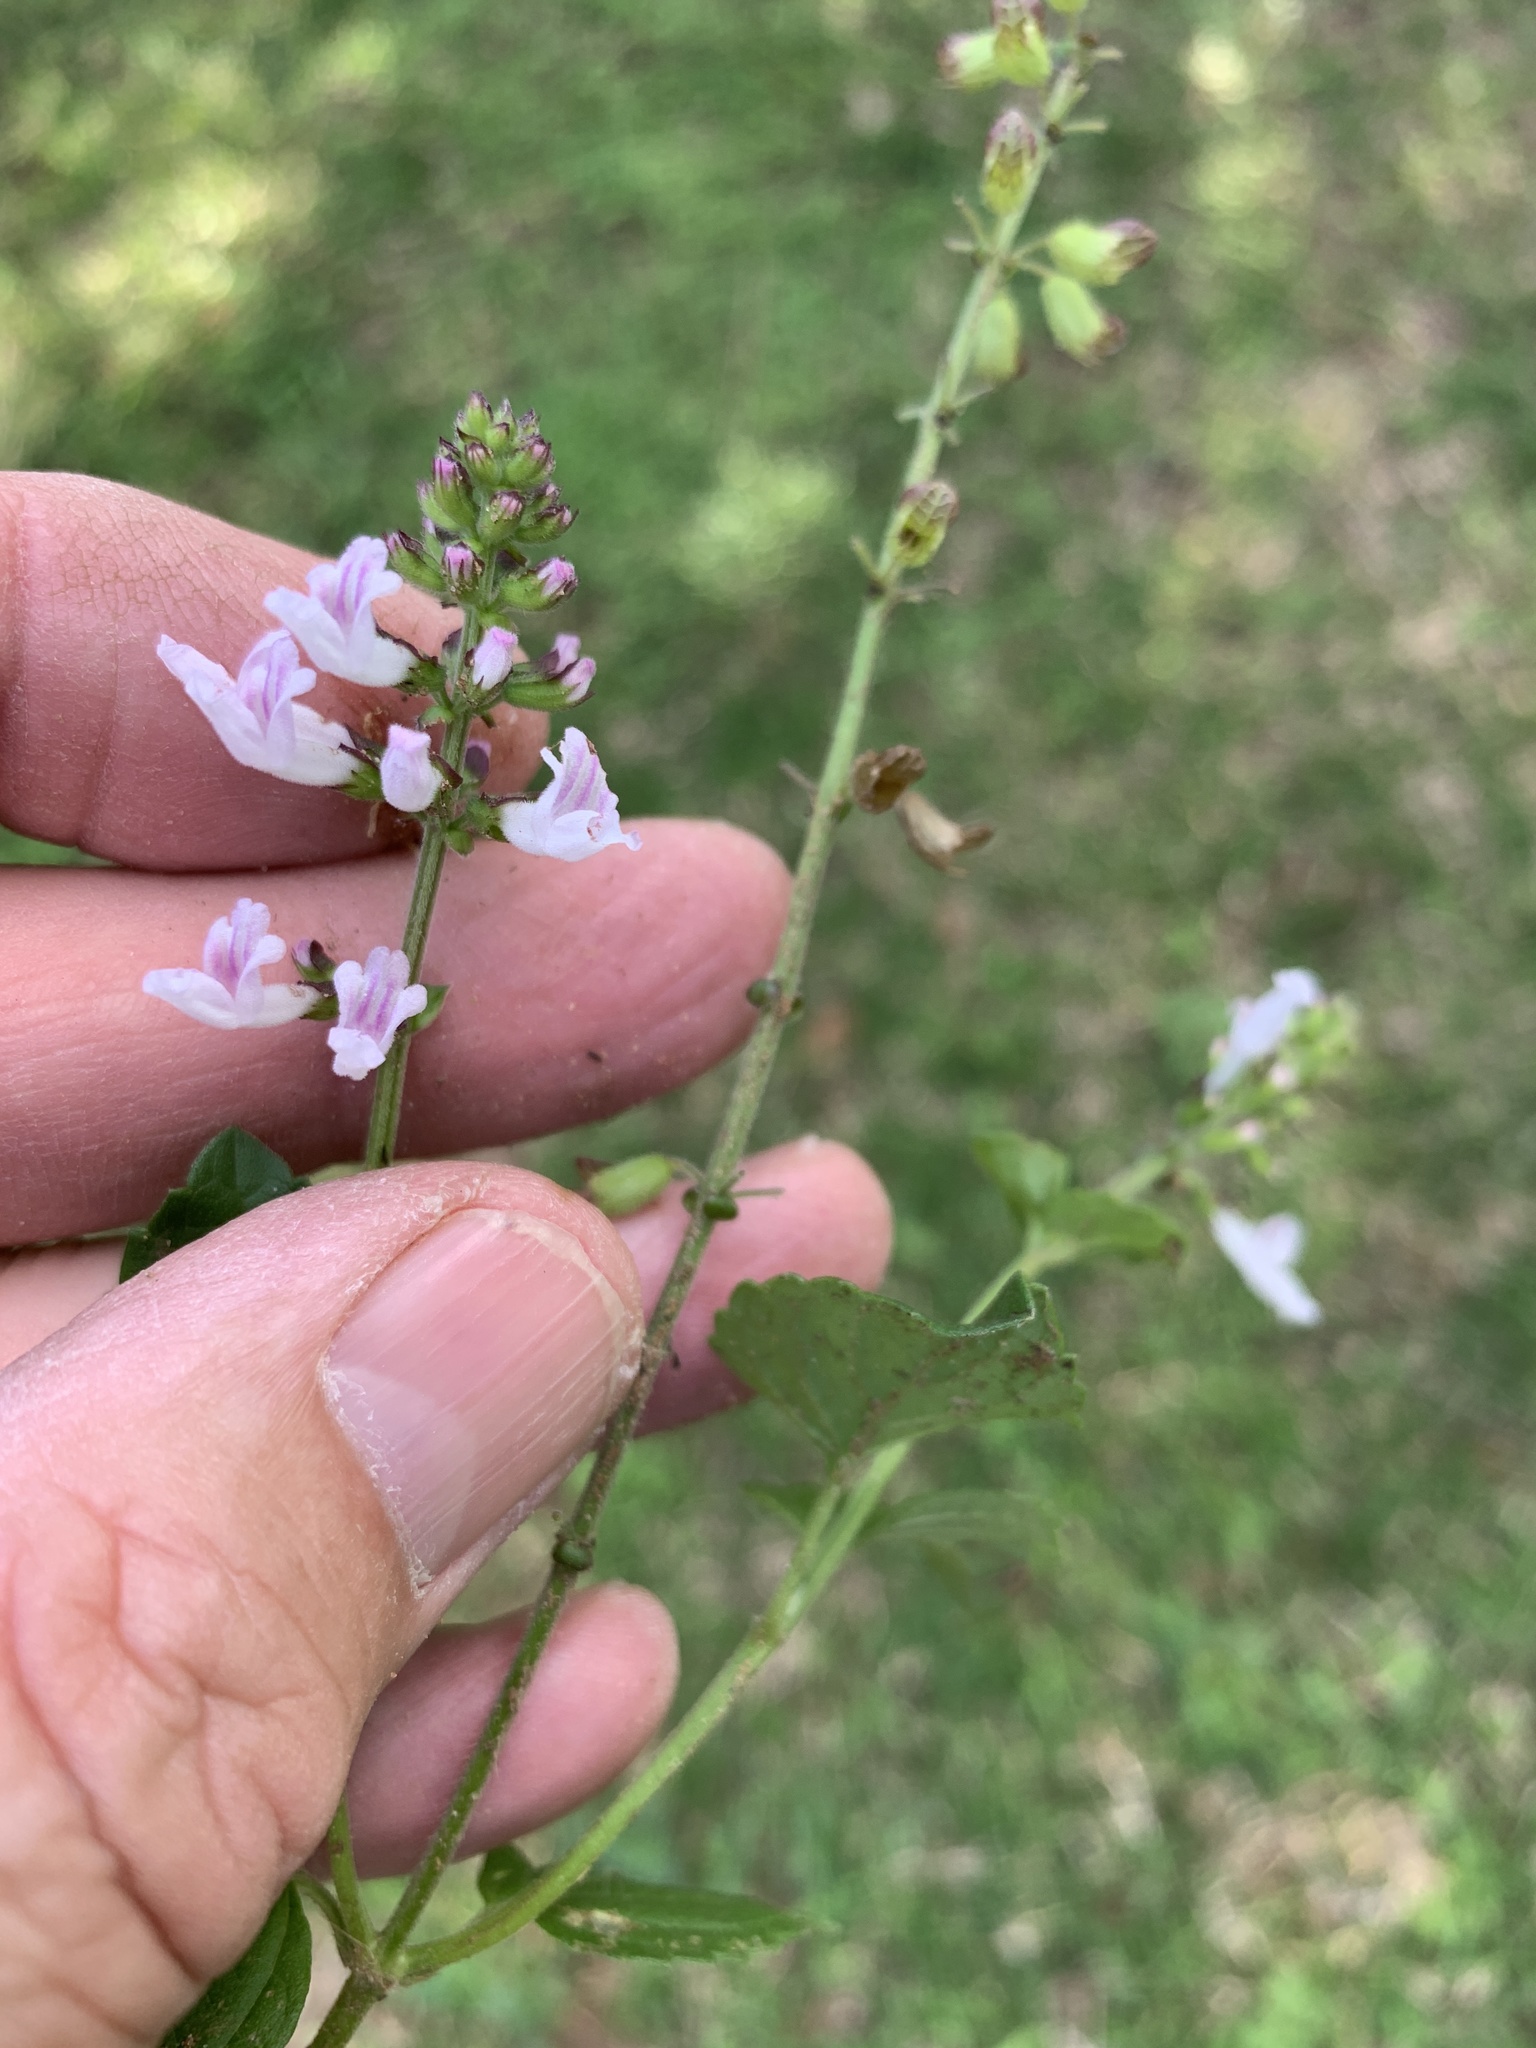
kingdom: Plantae
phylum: Tracheophyta
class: Magnoliopsida
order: Lamiales
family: Lamiaceae
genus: Orthosiphon
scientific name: Orthosiphon thymiflorus
